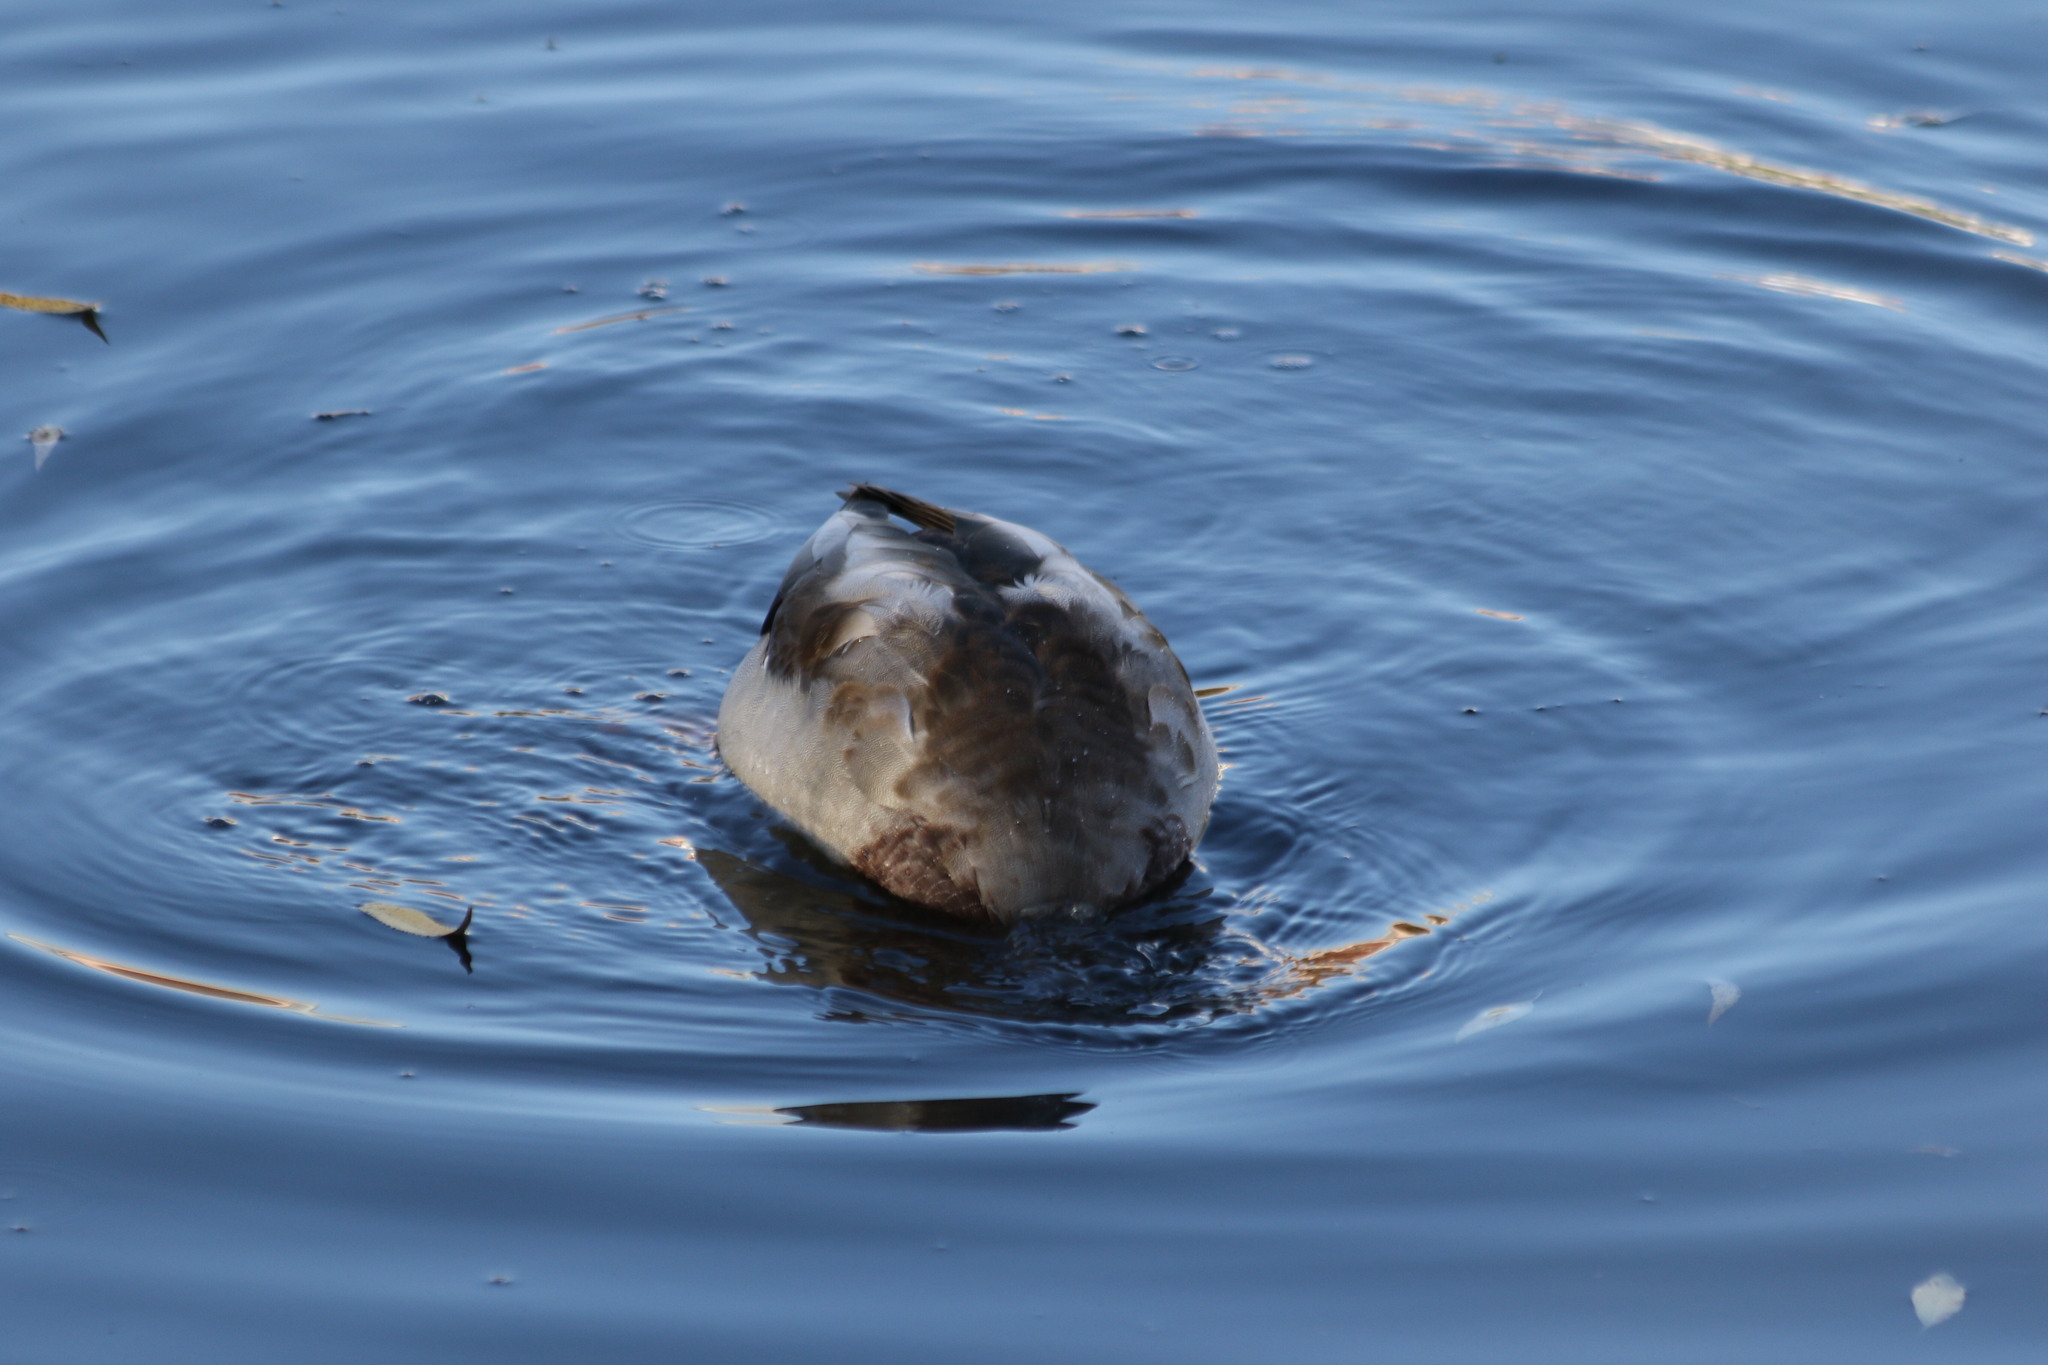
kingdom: Animalia
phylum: Chordata
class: Aves
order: Anseriformes
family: Anatidae
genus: Anas
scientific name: Anas platyrhynchos
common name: Mallard
